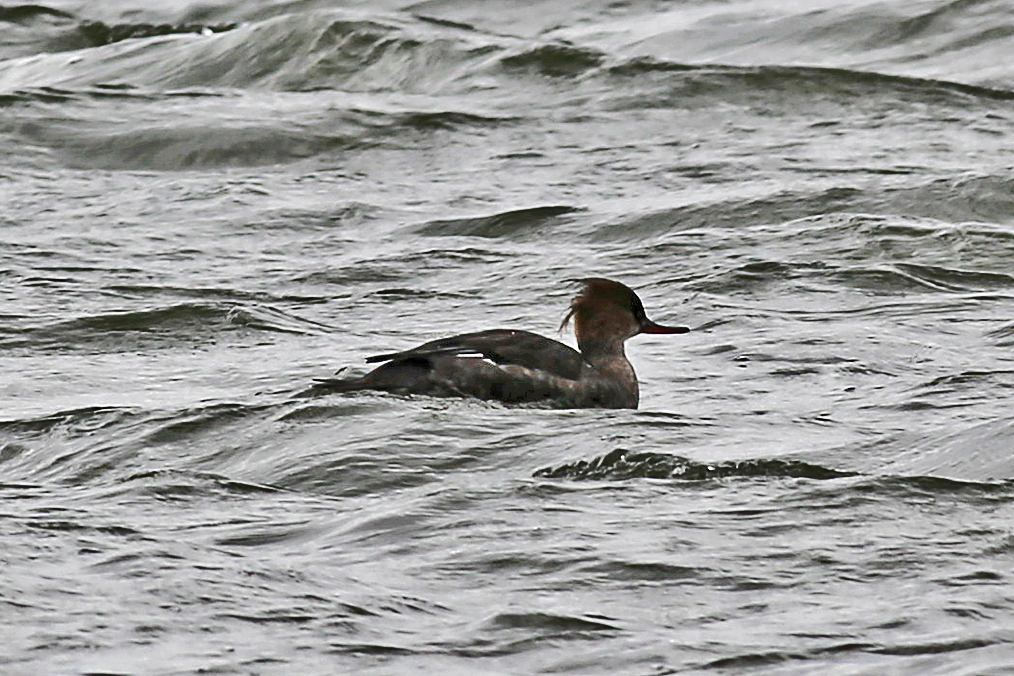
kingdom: Animalia
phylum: Chordata
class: Aves
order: Anseriformes
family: Anatidae
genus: Mergus
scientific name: Mergus serrator
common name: Red-breasted merganser
